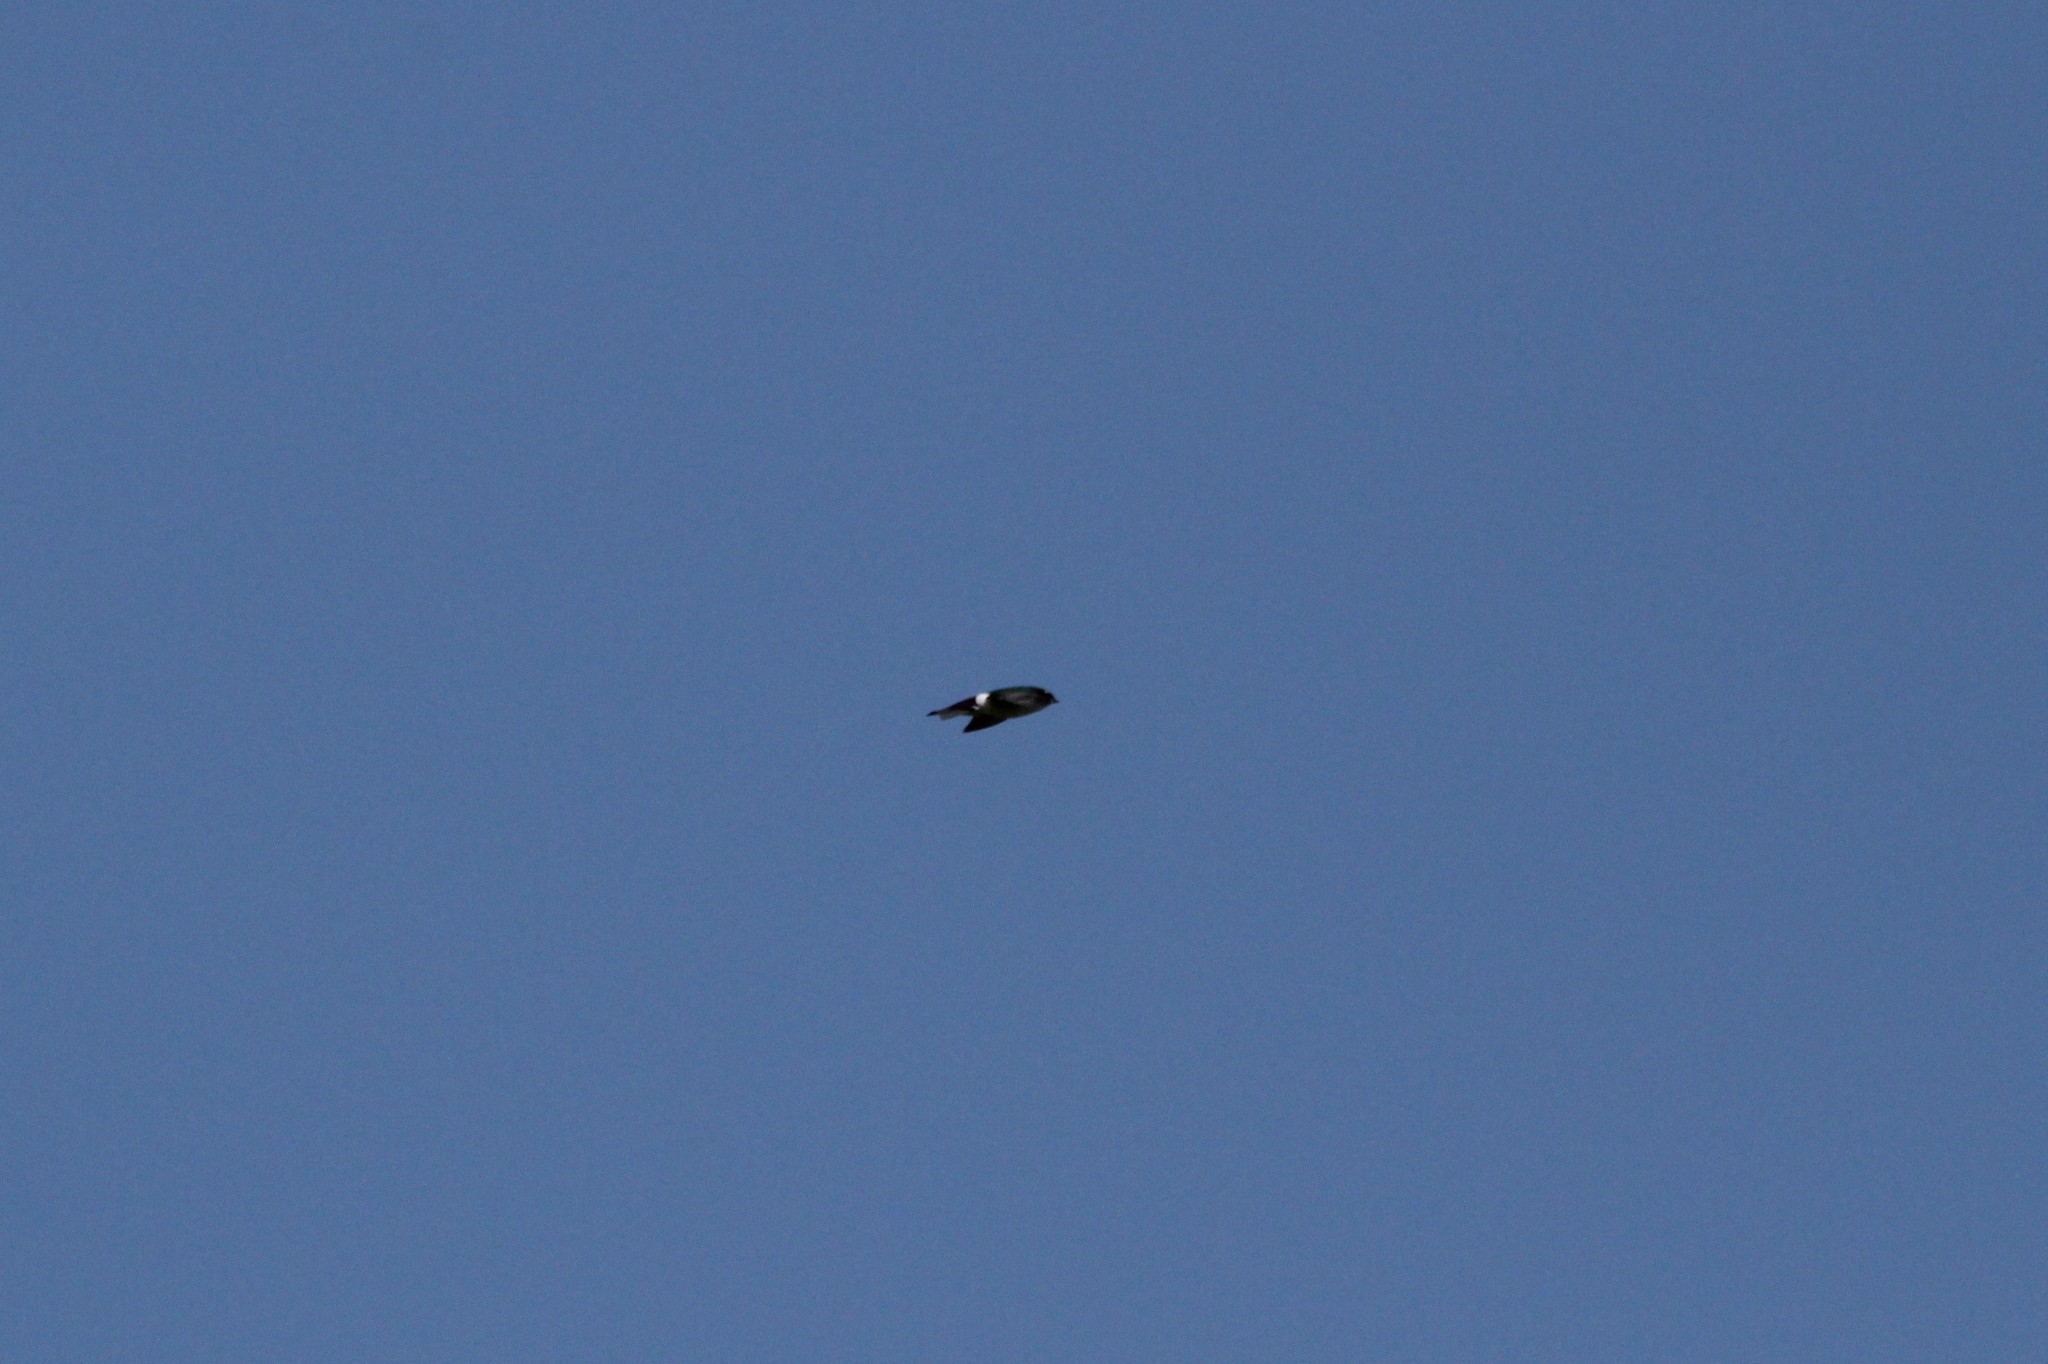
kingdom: Animalia
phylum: Chordata
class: Aves
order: Passeriformes
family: Hirundinidae
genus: Tachycineta
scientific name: Tachycineta thalassina
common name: Violet-green swallow
